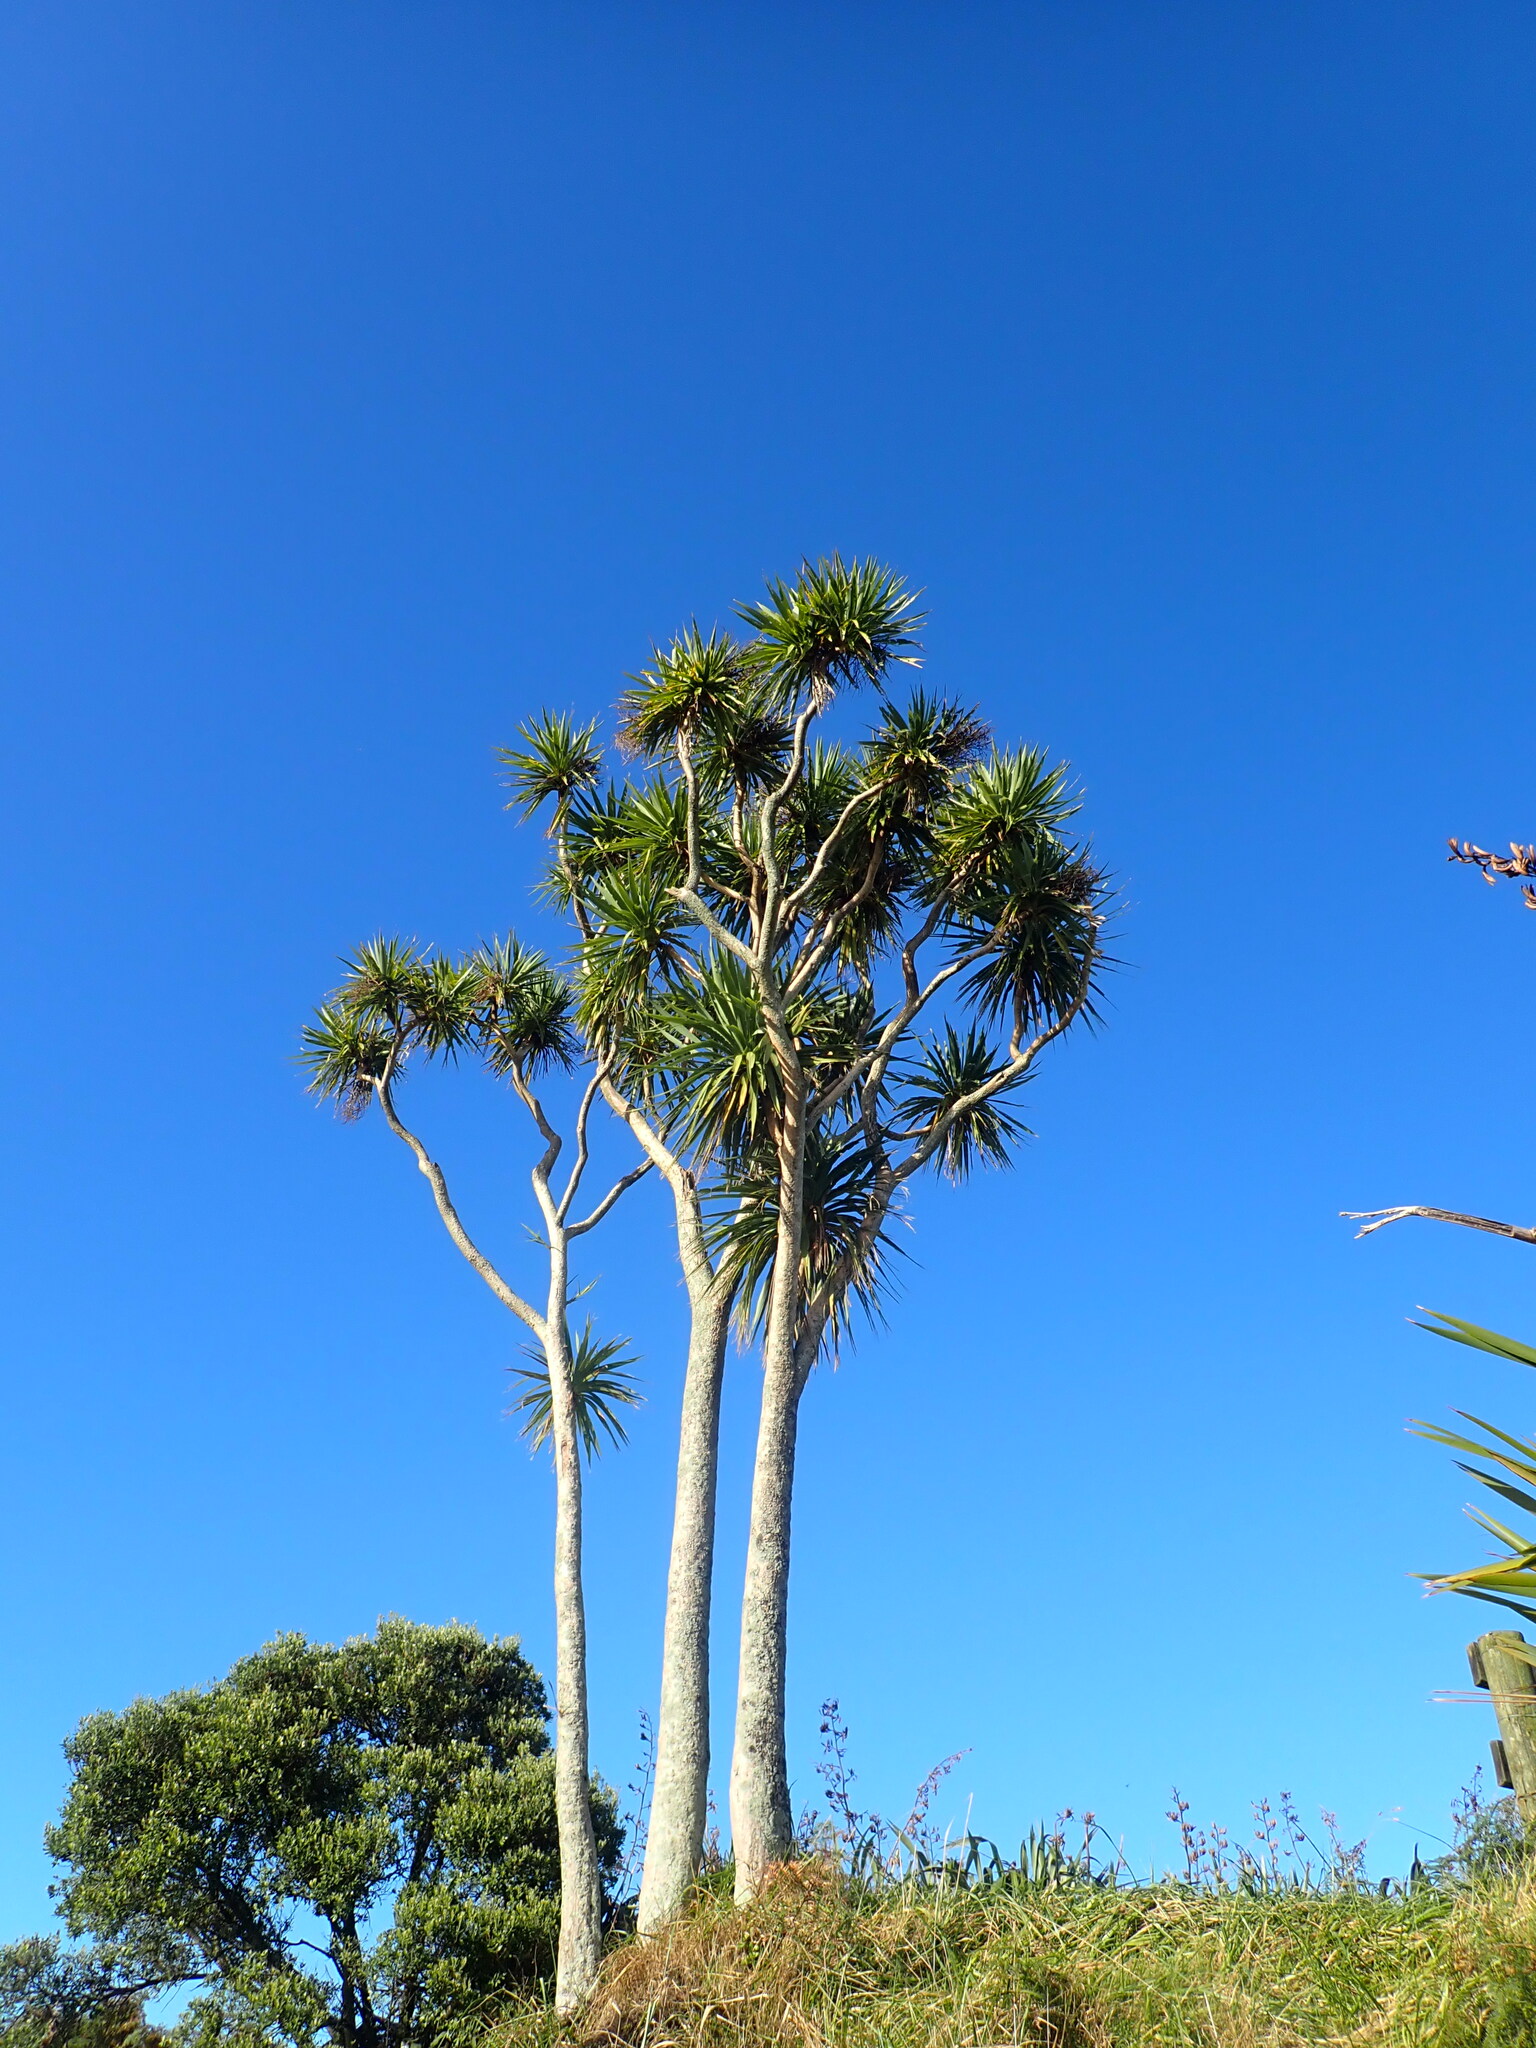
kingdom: Plantae
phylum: Tracheophyta
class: Liliopsida
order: Asparagales
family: Asparagaceae
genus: Cordyline
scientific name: Cordyline australis
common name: Cabbage-palm
